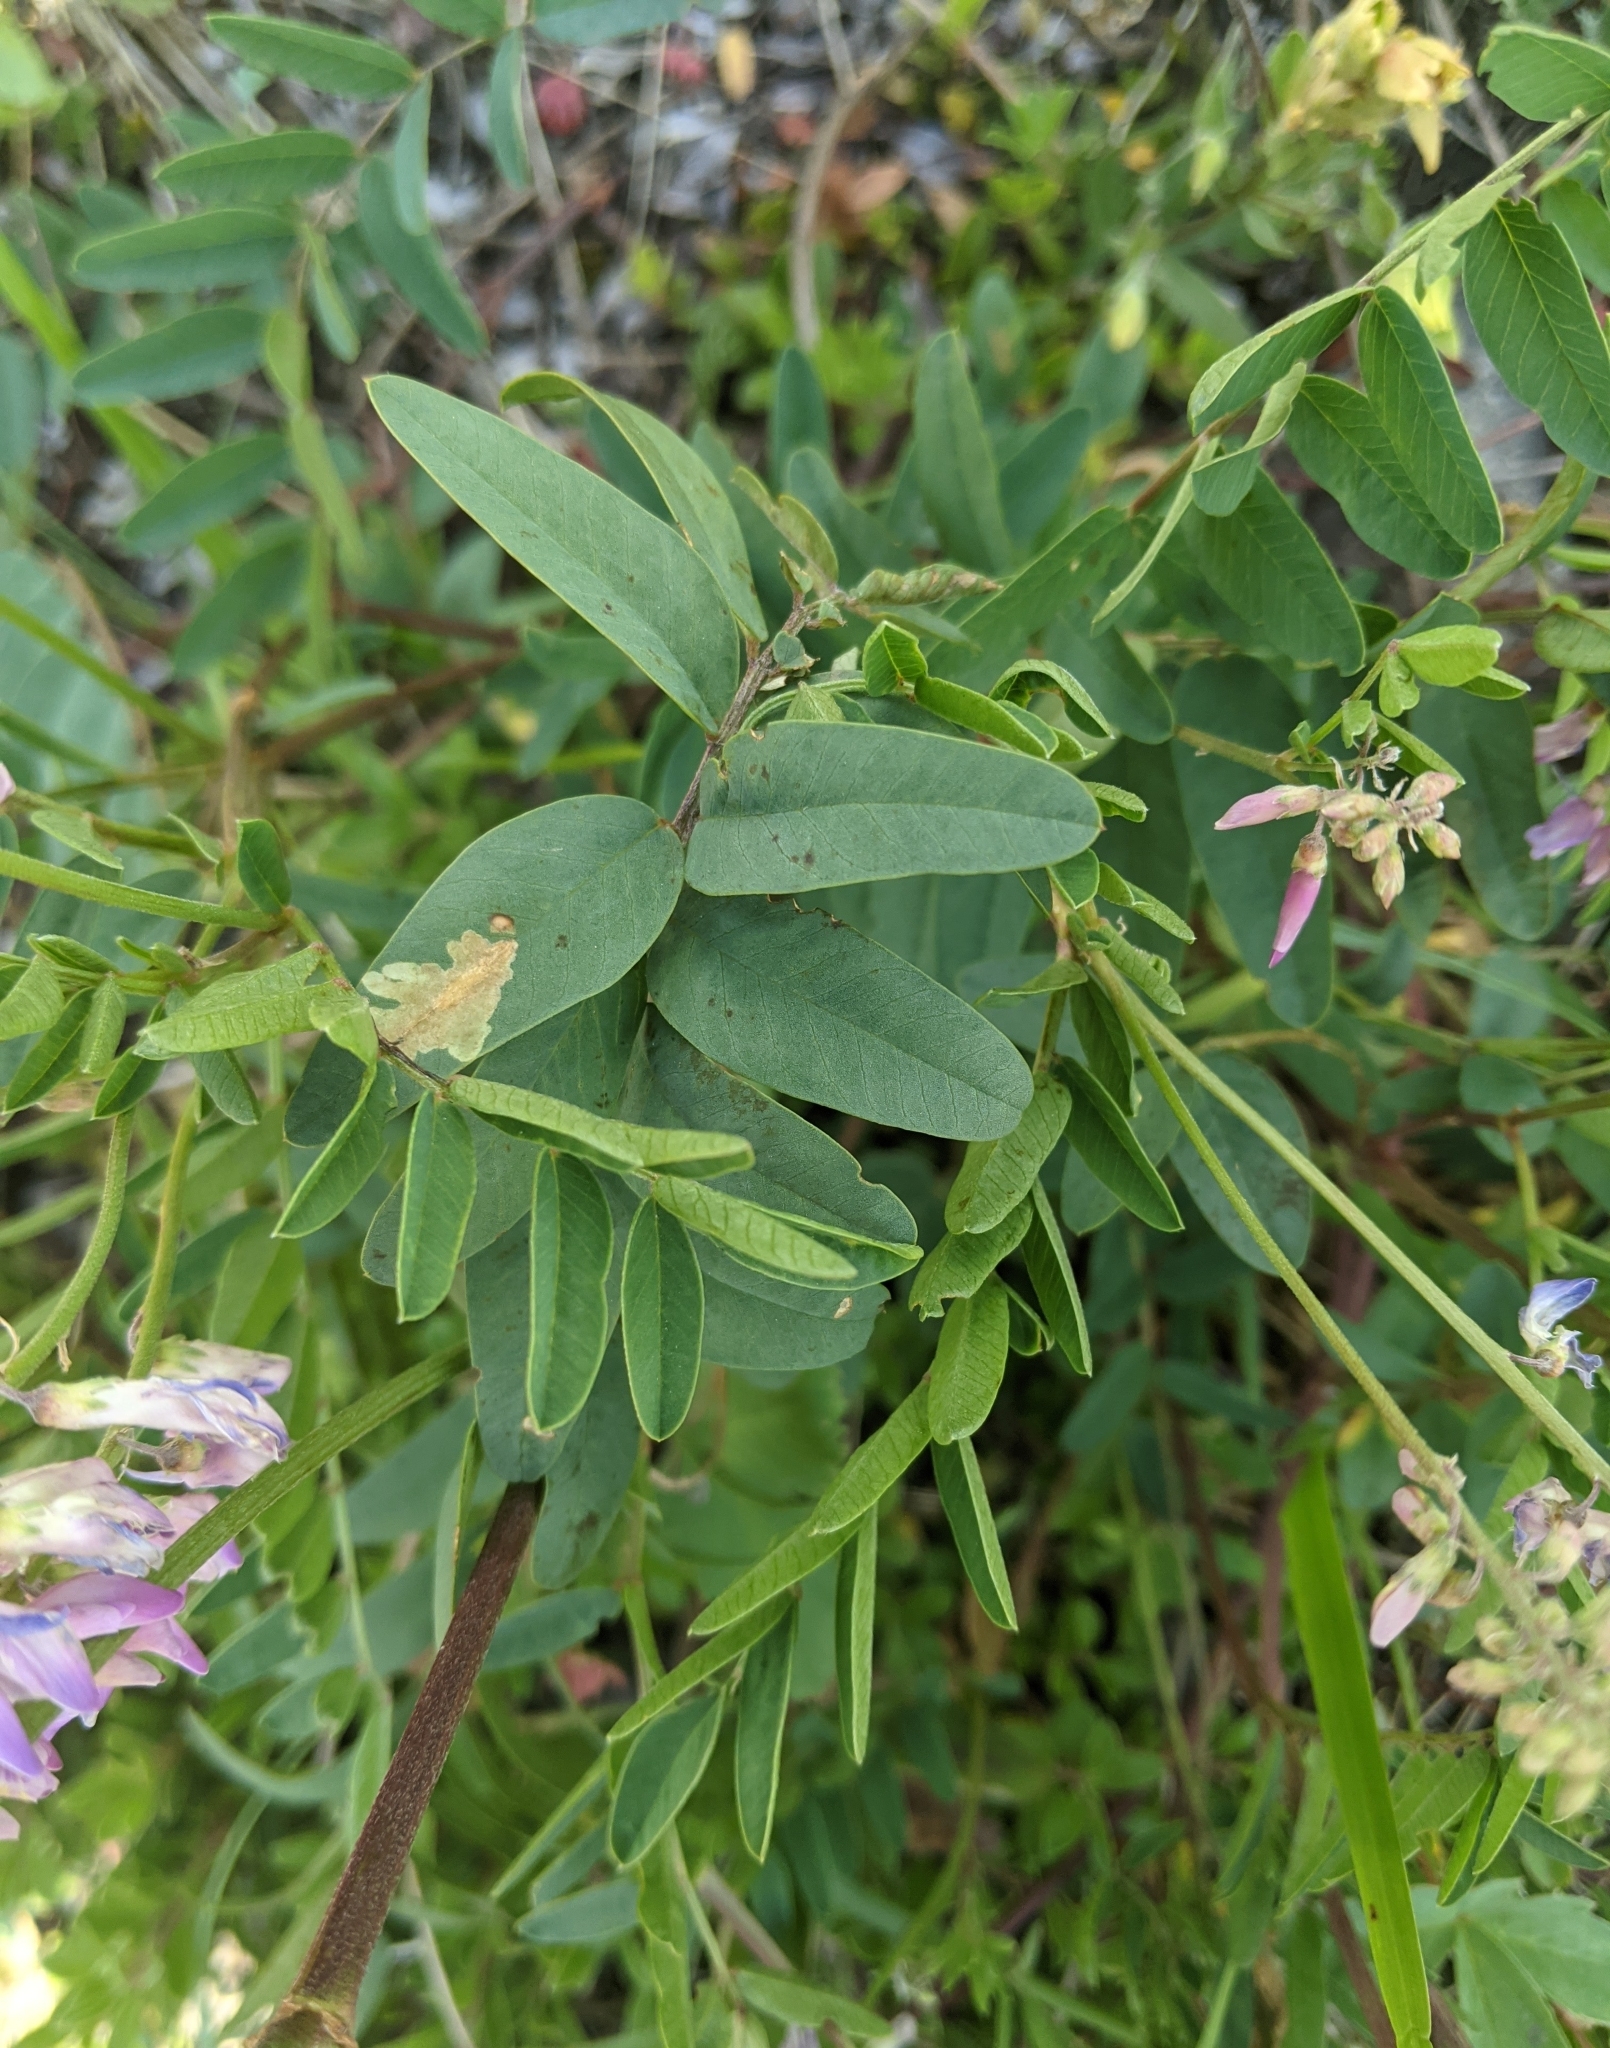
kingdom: Plantae
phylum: Tracheophyta
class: Magnoliopsida
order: Fabales
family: Fabaceae
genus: Hedysarum
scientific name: Hedysarum alpinum
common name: Alpine sweet-vetch
